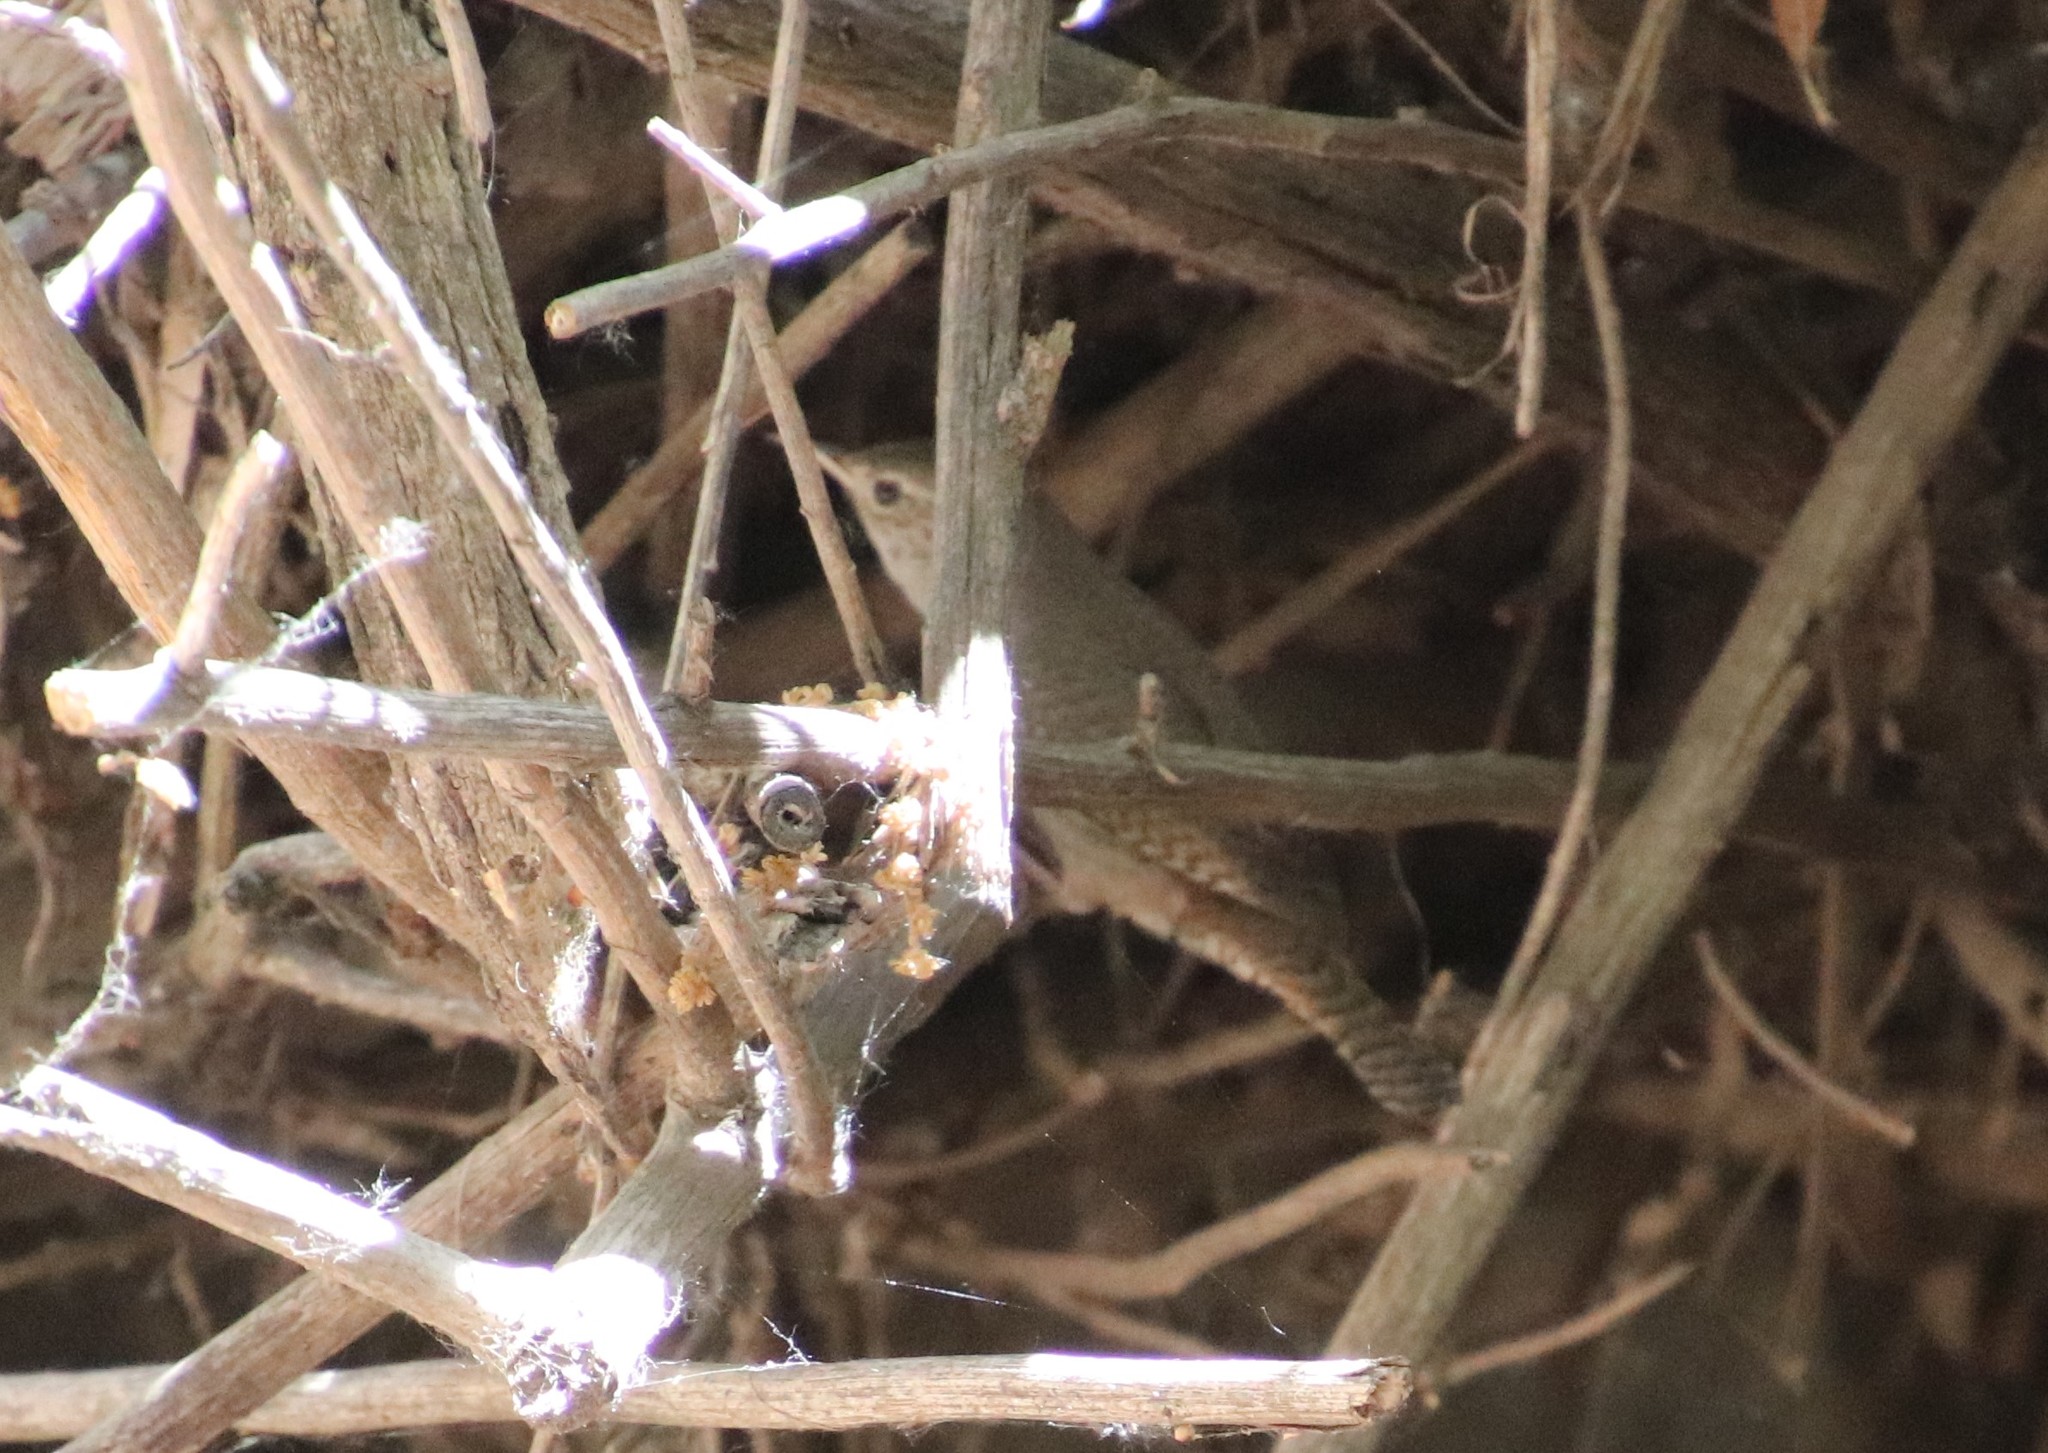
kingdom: Animalia
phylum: Chordata
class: Aves
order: Passeriformes
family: Troglodytidae
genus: Troglodytes
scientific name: Troglodytes aedon
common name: House wren
